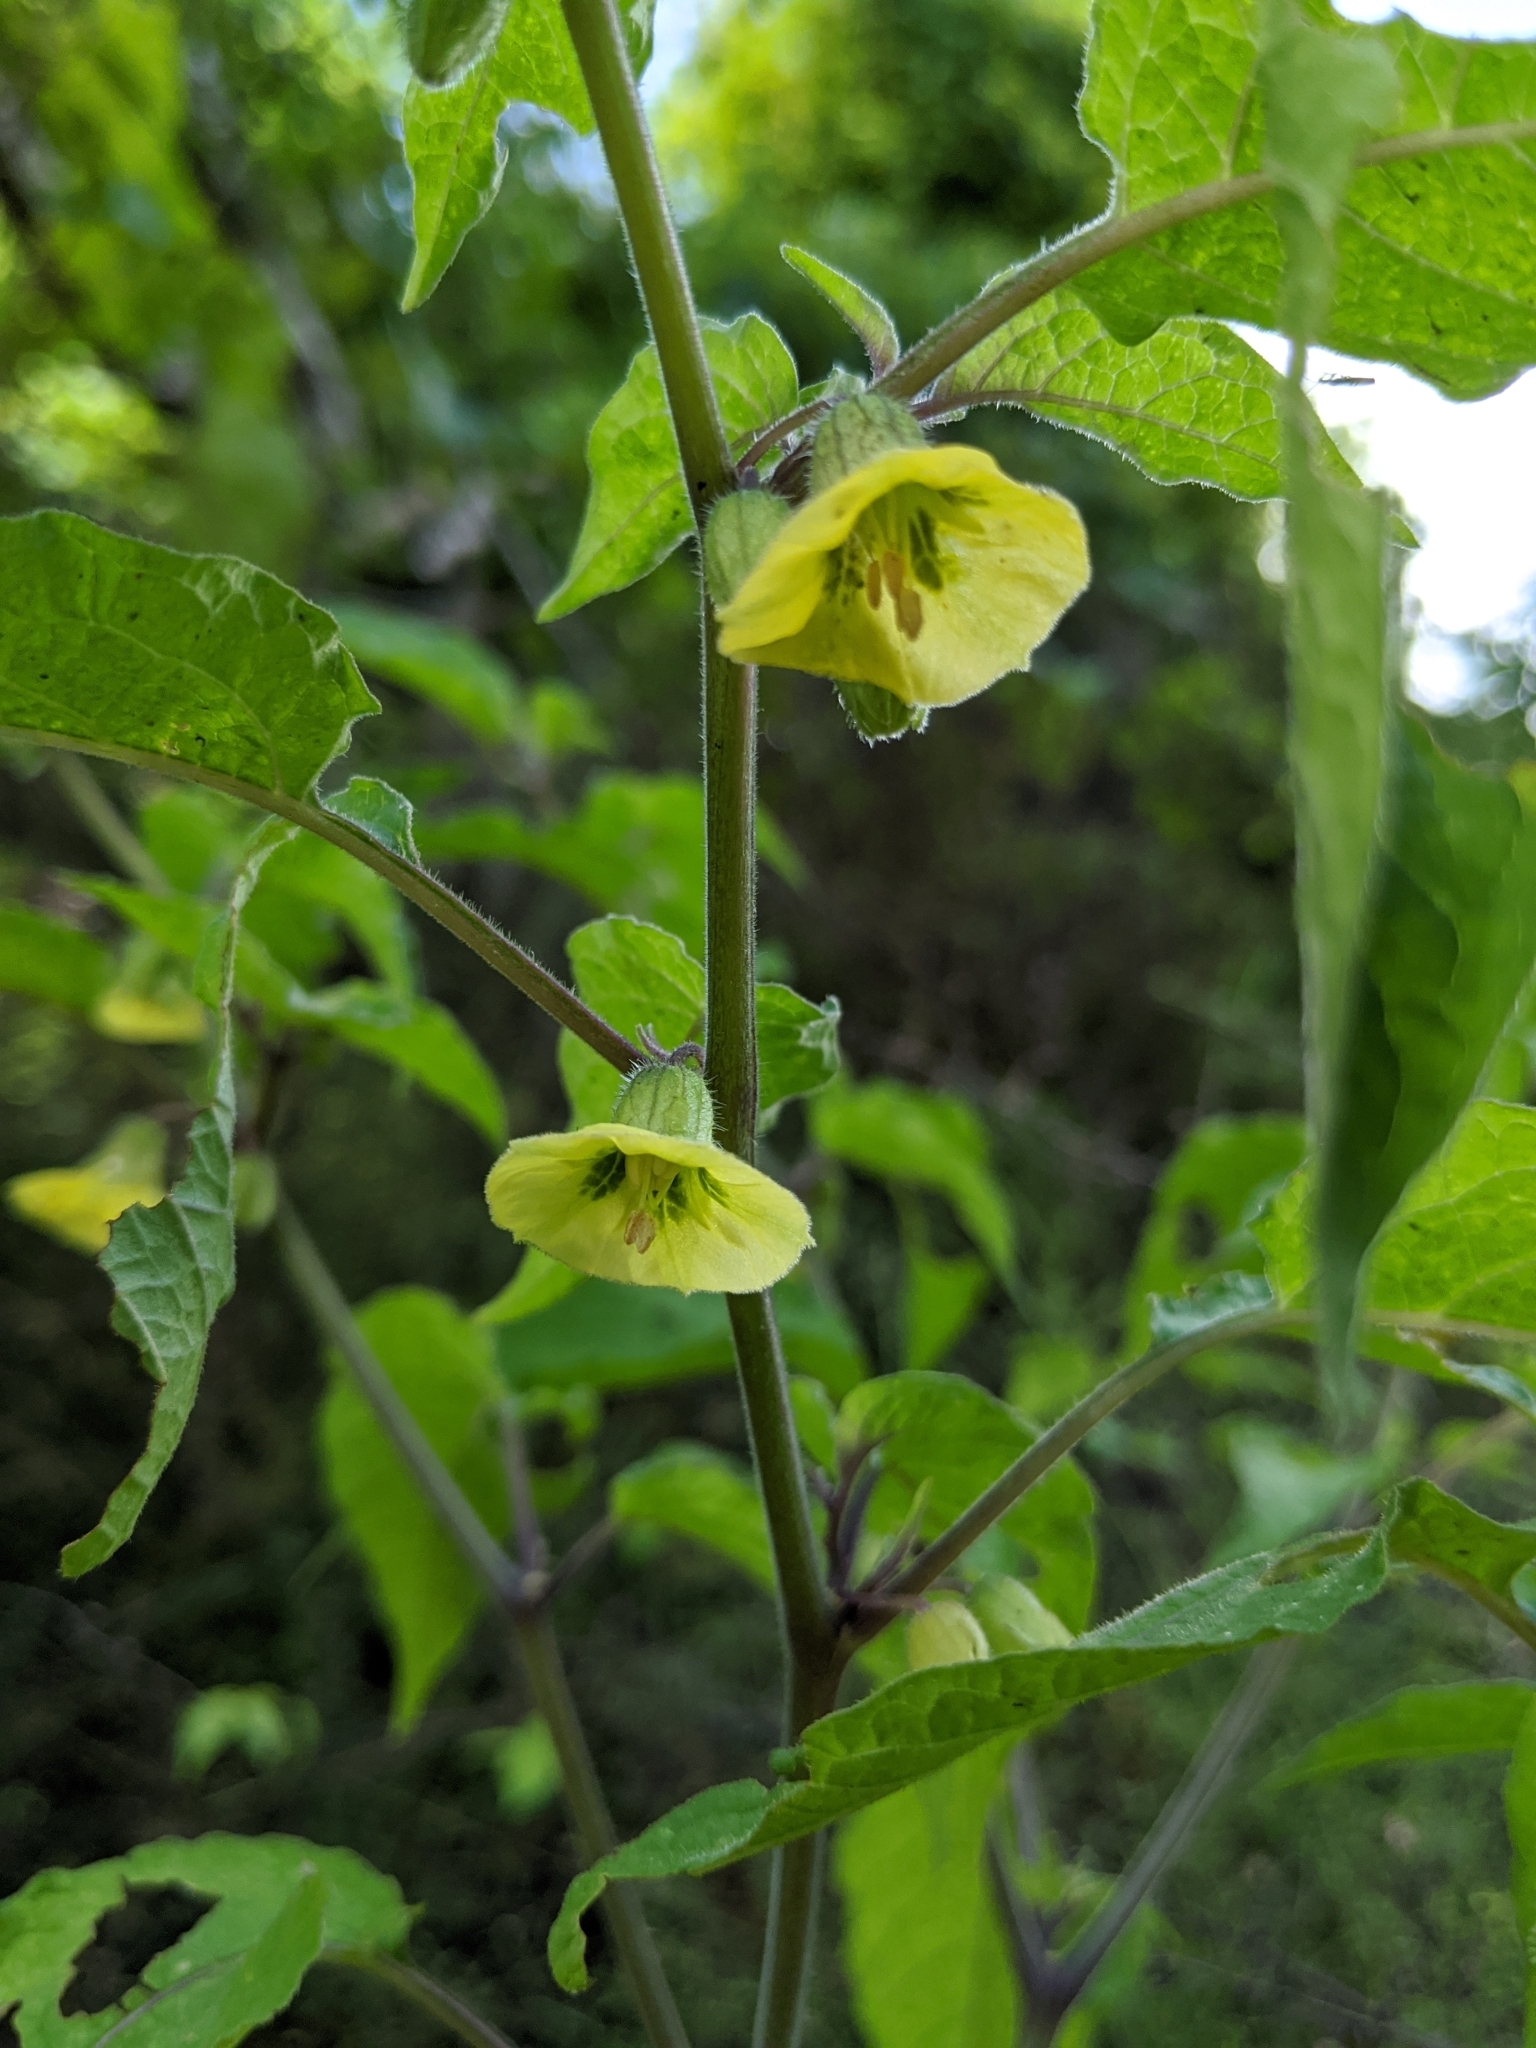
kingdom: Plantae
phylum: Tracheophyta
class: Magnoliopsida
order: Solanales
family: Solanaceae
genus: Calliphysalis
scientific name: Calliphysalis carpenteri
